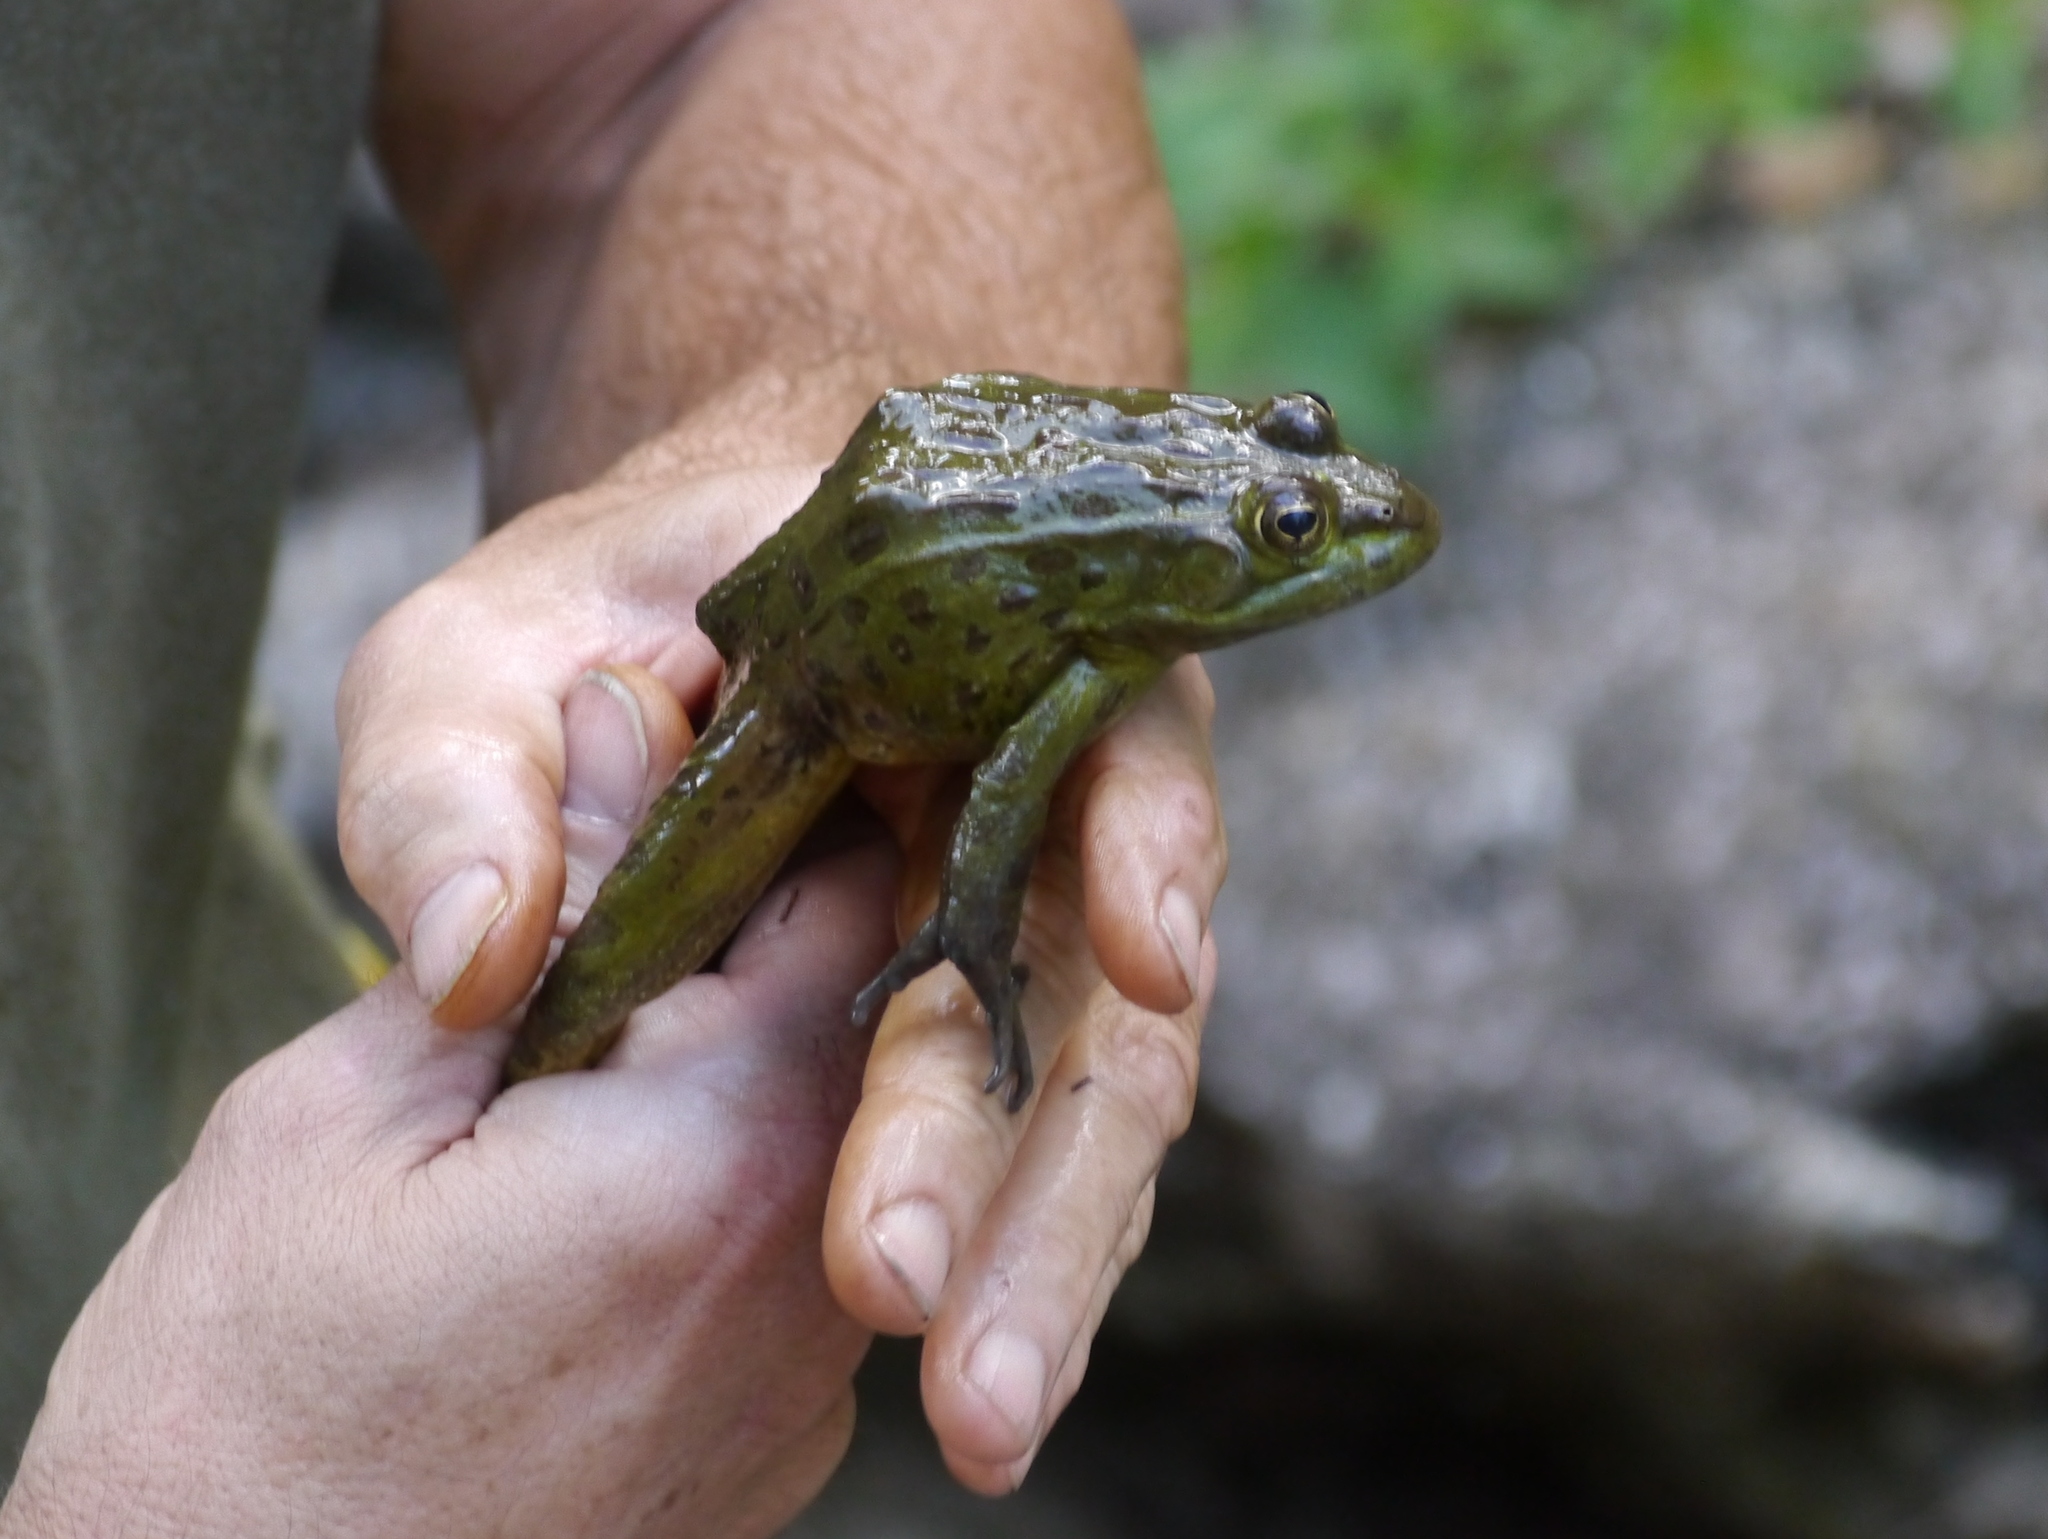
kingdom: Animalia
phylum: Chordata
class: Amphibia
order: Anura
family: Ranidae
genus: Lithobates
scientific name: Lithobates chiricahuensis
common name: Chiricahua leopard frog
